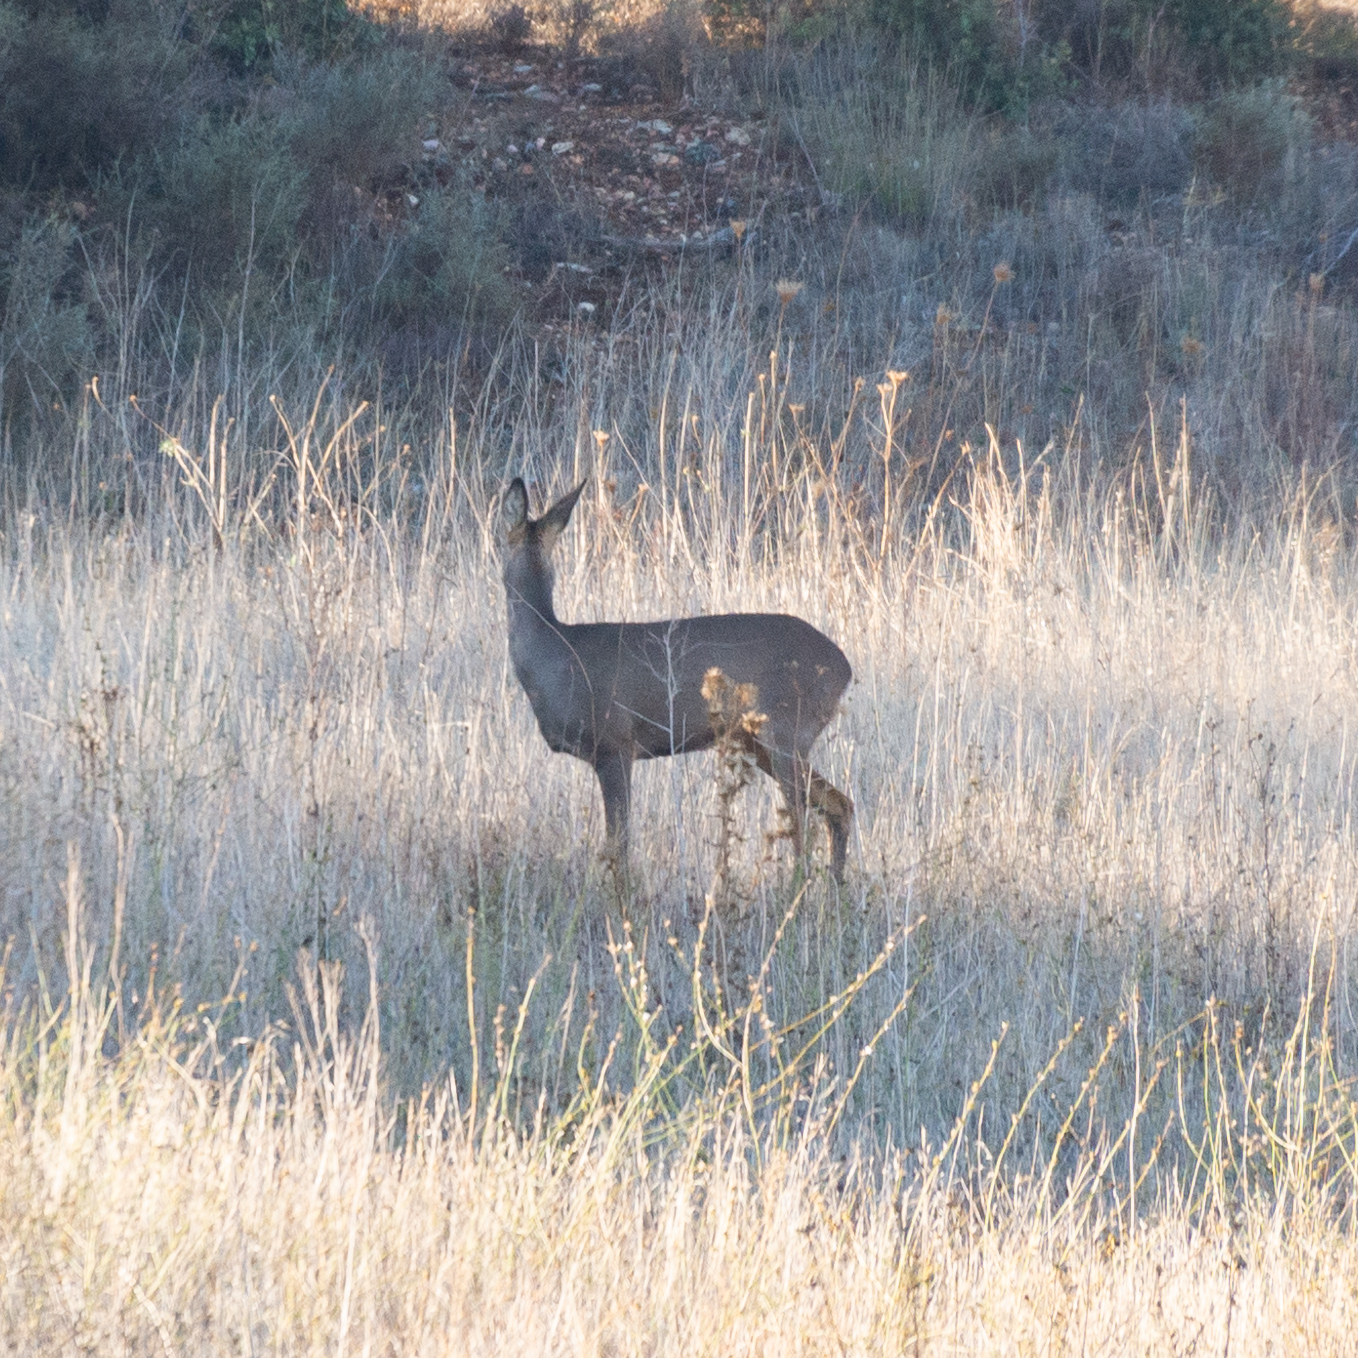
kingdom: Animalia
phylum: Chordata
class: Mammalia
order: Artiodactyla
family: Cervidae
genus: Capreolus
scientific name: Capreolus capreolus
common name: Western roe deer
